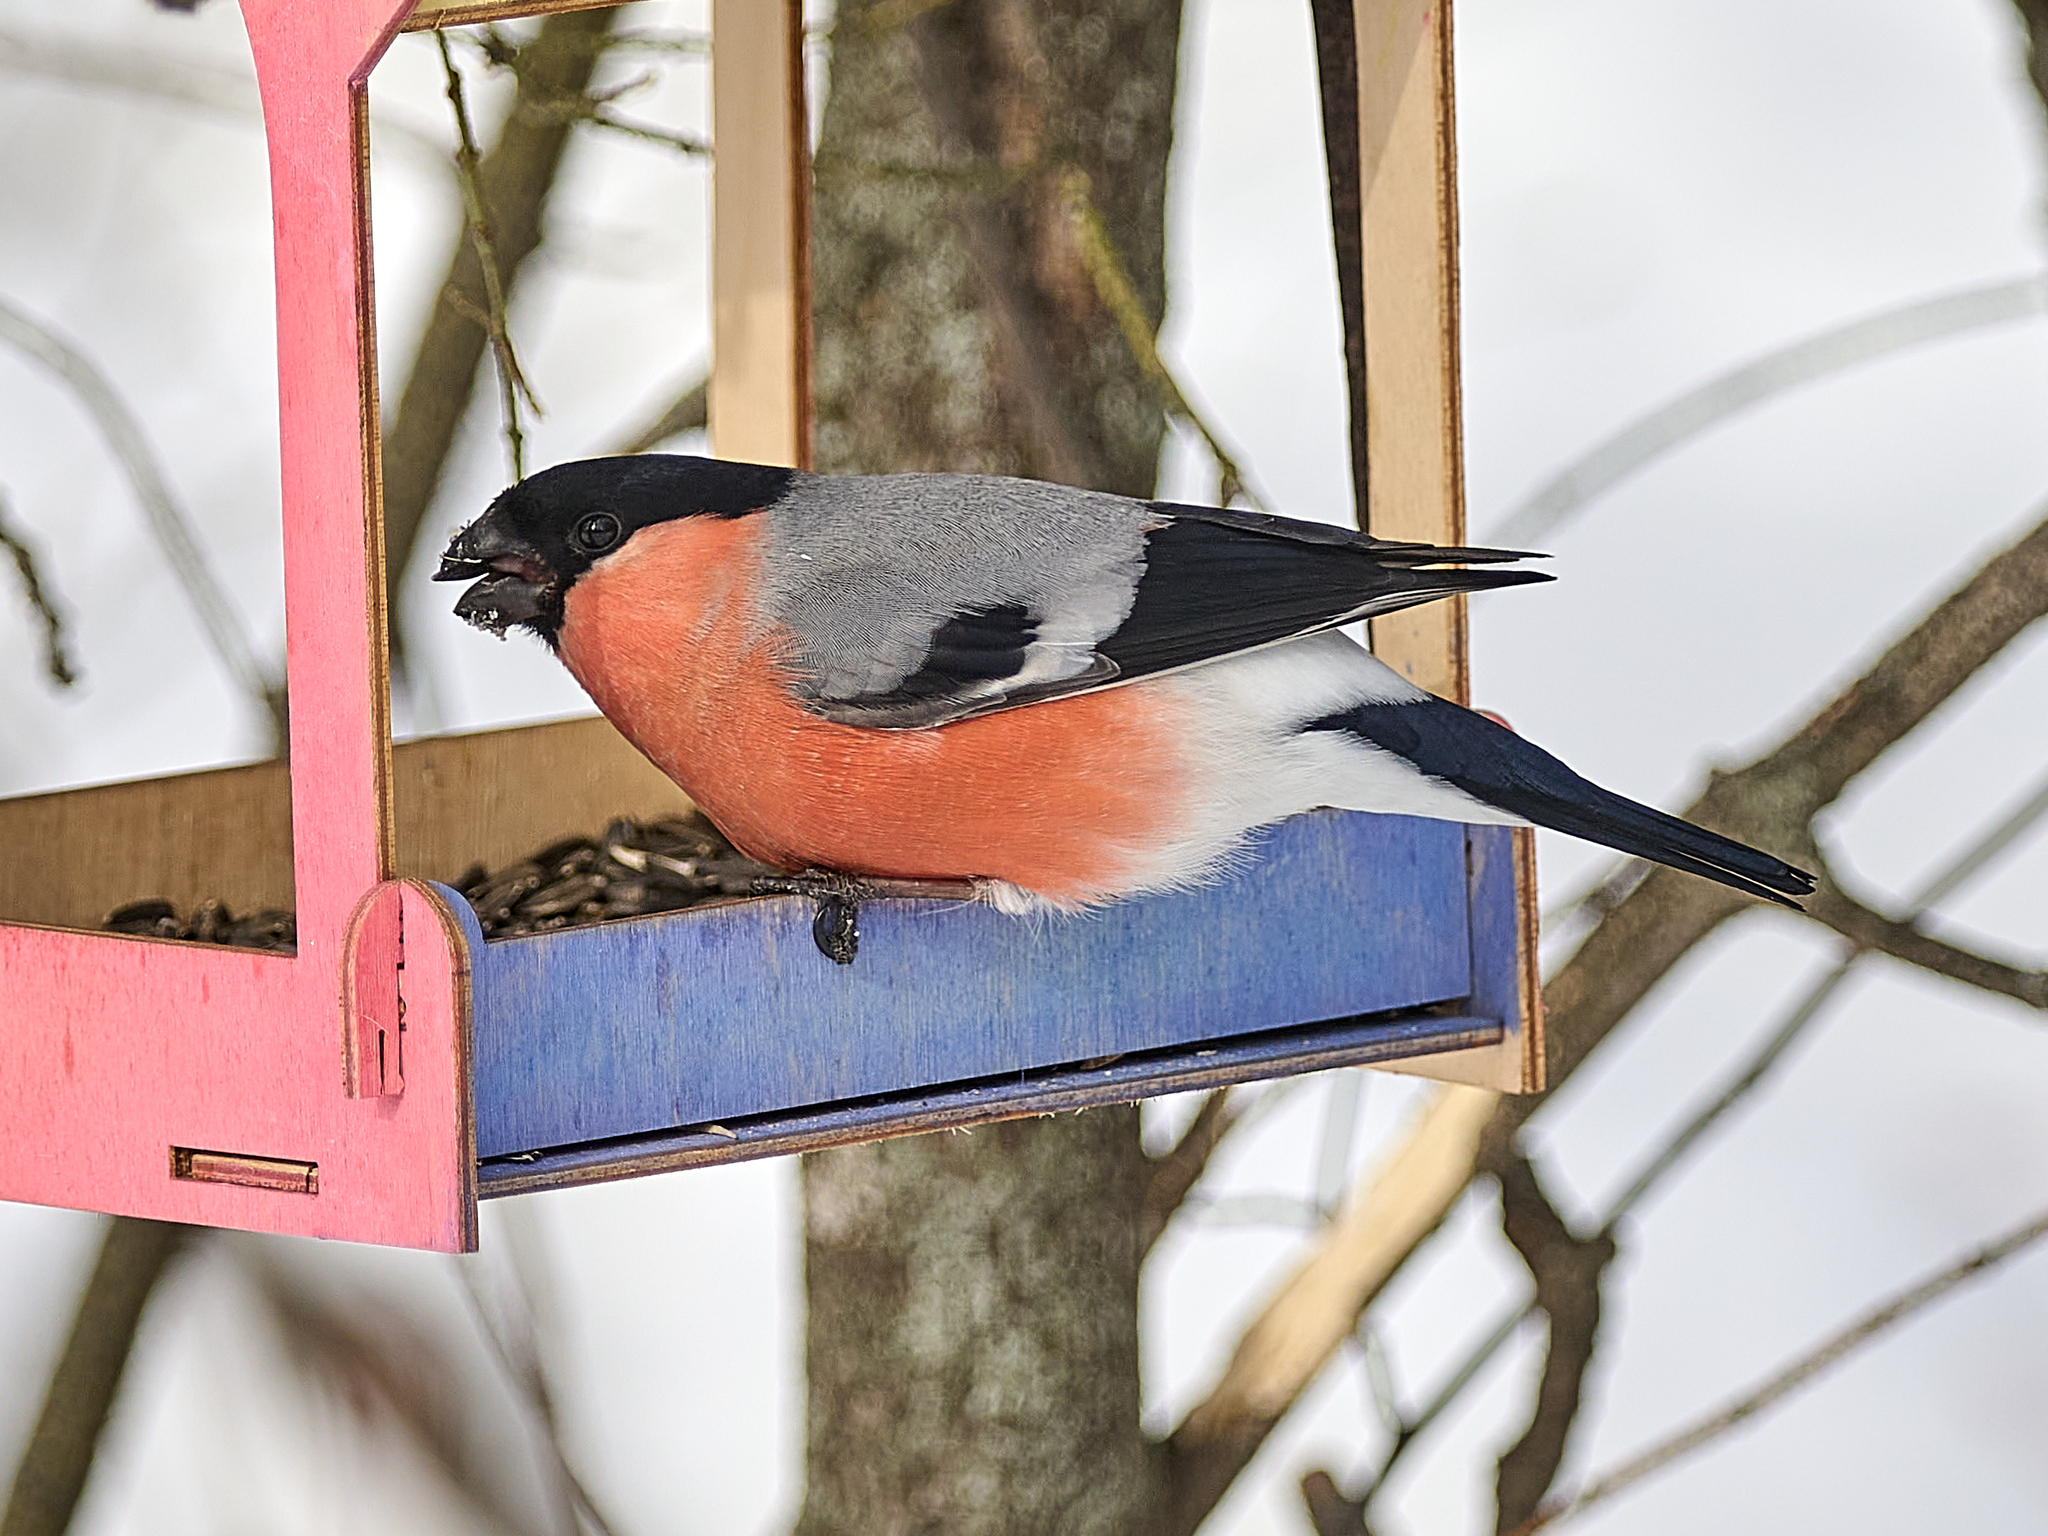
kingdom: Animalia
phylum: Chordata
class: Aves
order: Passeriformes
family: Fringillidae
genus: Pyrrhula
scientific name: Pyrrhula pyrrhula
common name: Eurasian bullfinch
